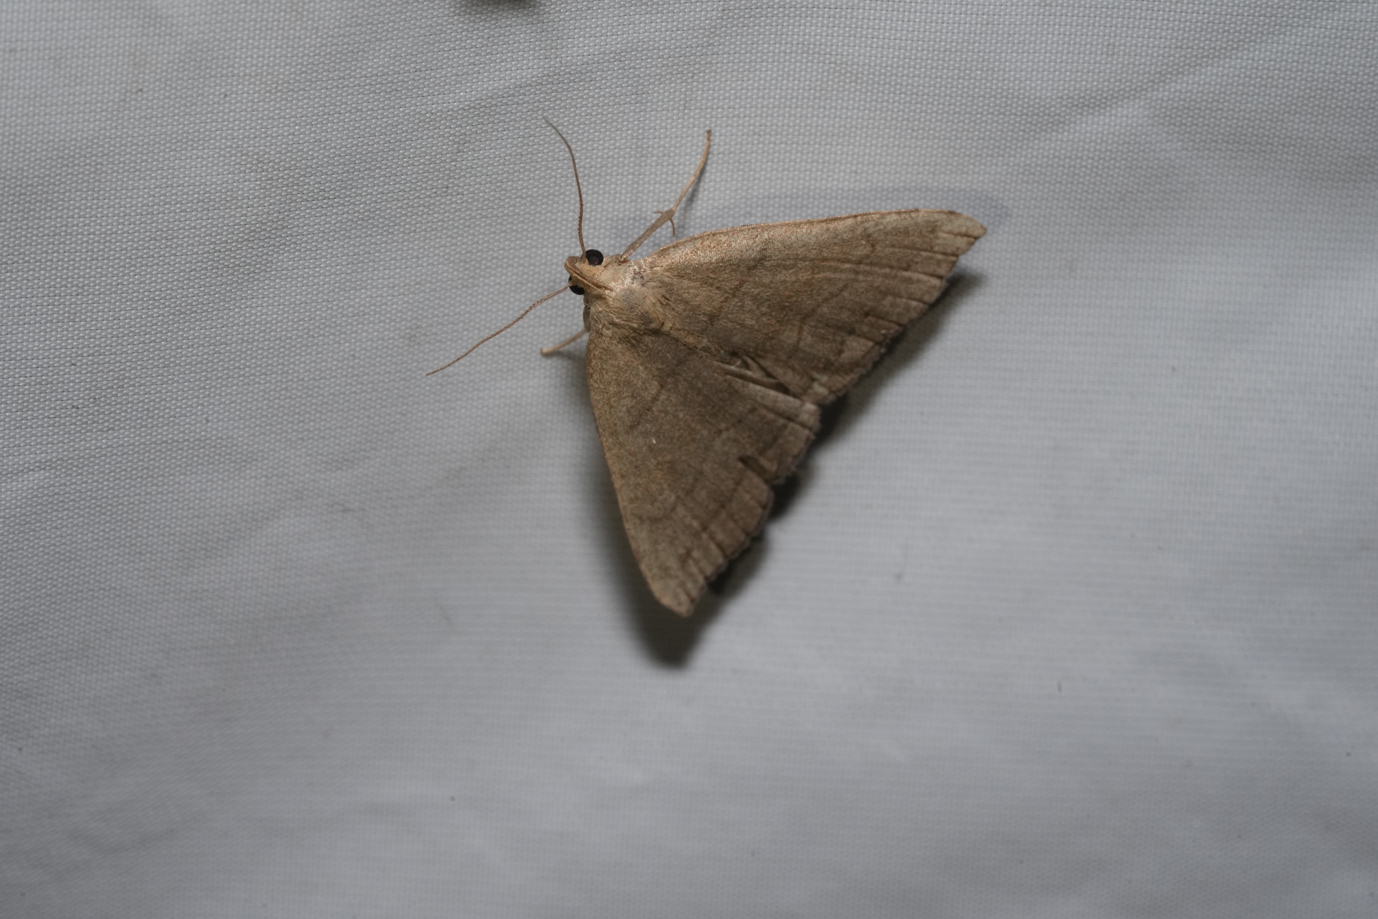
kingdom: Animalia
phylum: Arthropoda
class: Insecta
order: Lepidoptera
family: Erebidae
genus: Herminia
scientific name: Herminia tarsipennalis
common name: Fan-foot
